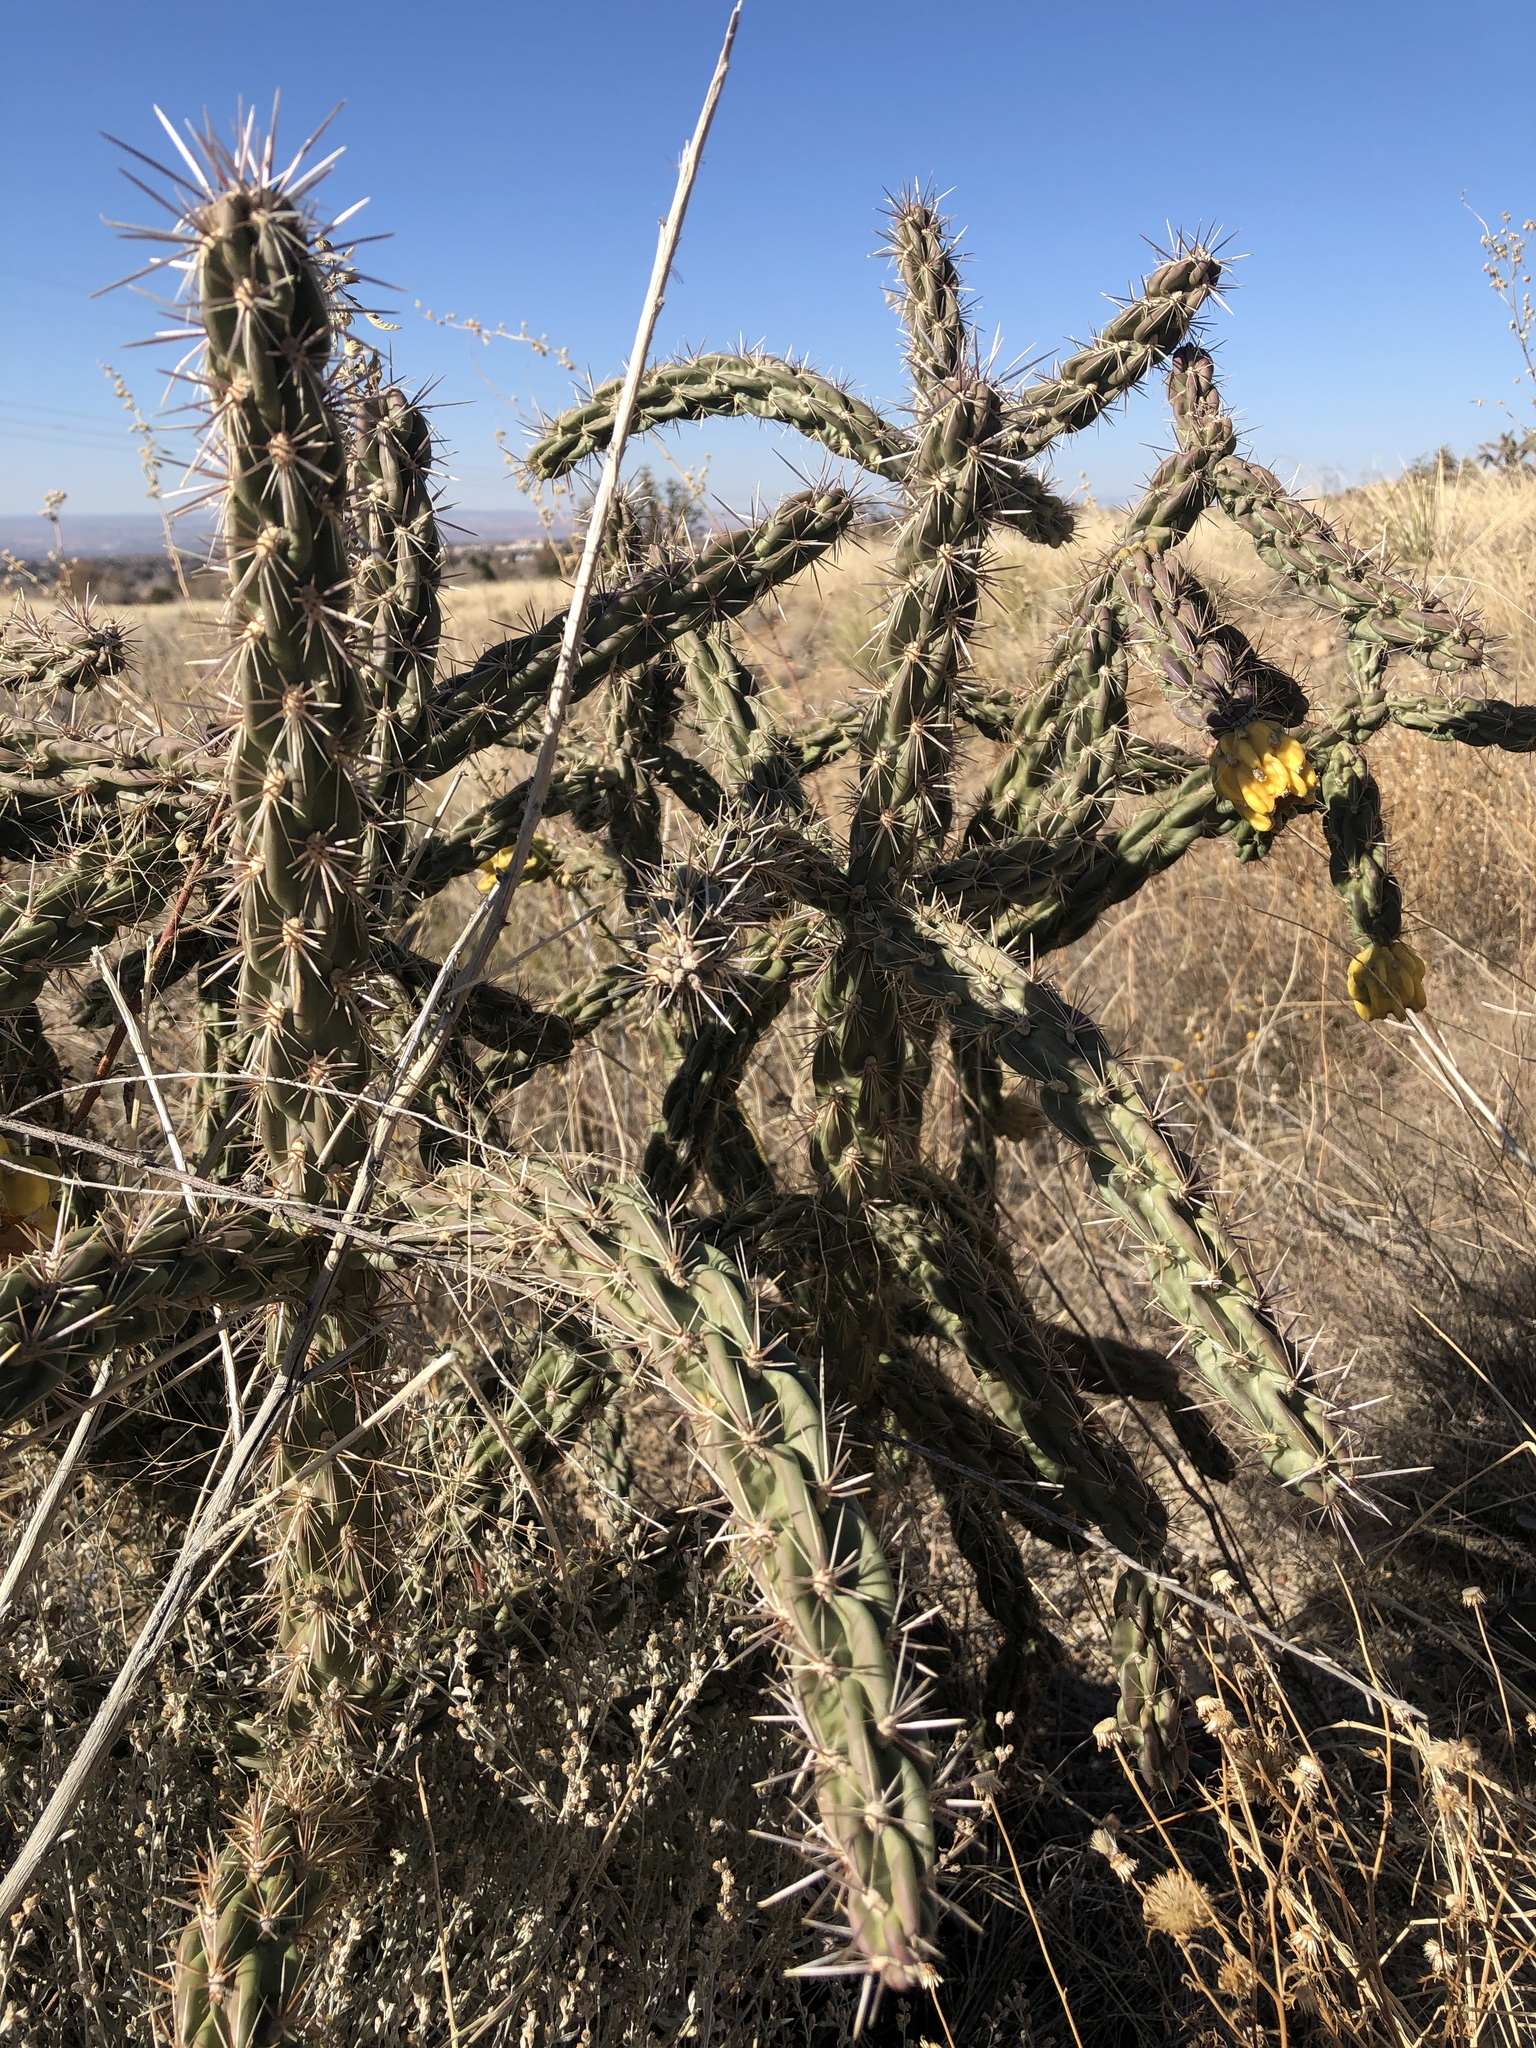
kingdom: Plantae
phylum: Tracheophyta
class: Magnoliopsida
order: Caryophyllales
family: Cactaceae
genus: Cylindropuntia
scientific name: Cylindropuntia imbricata
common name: Candelabrum cactus
